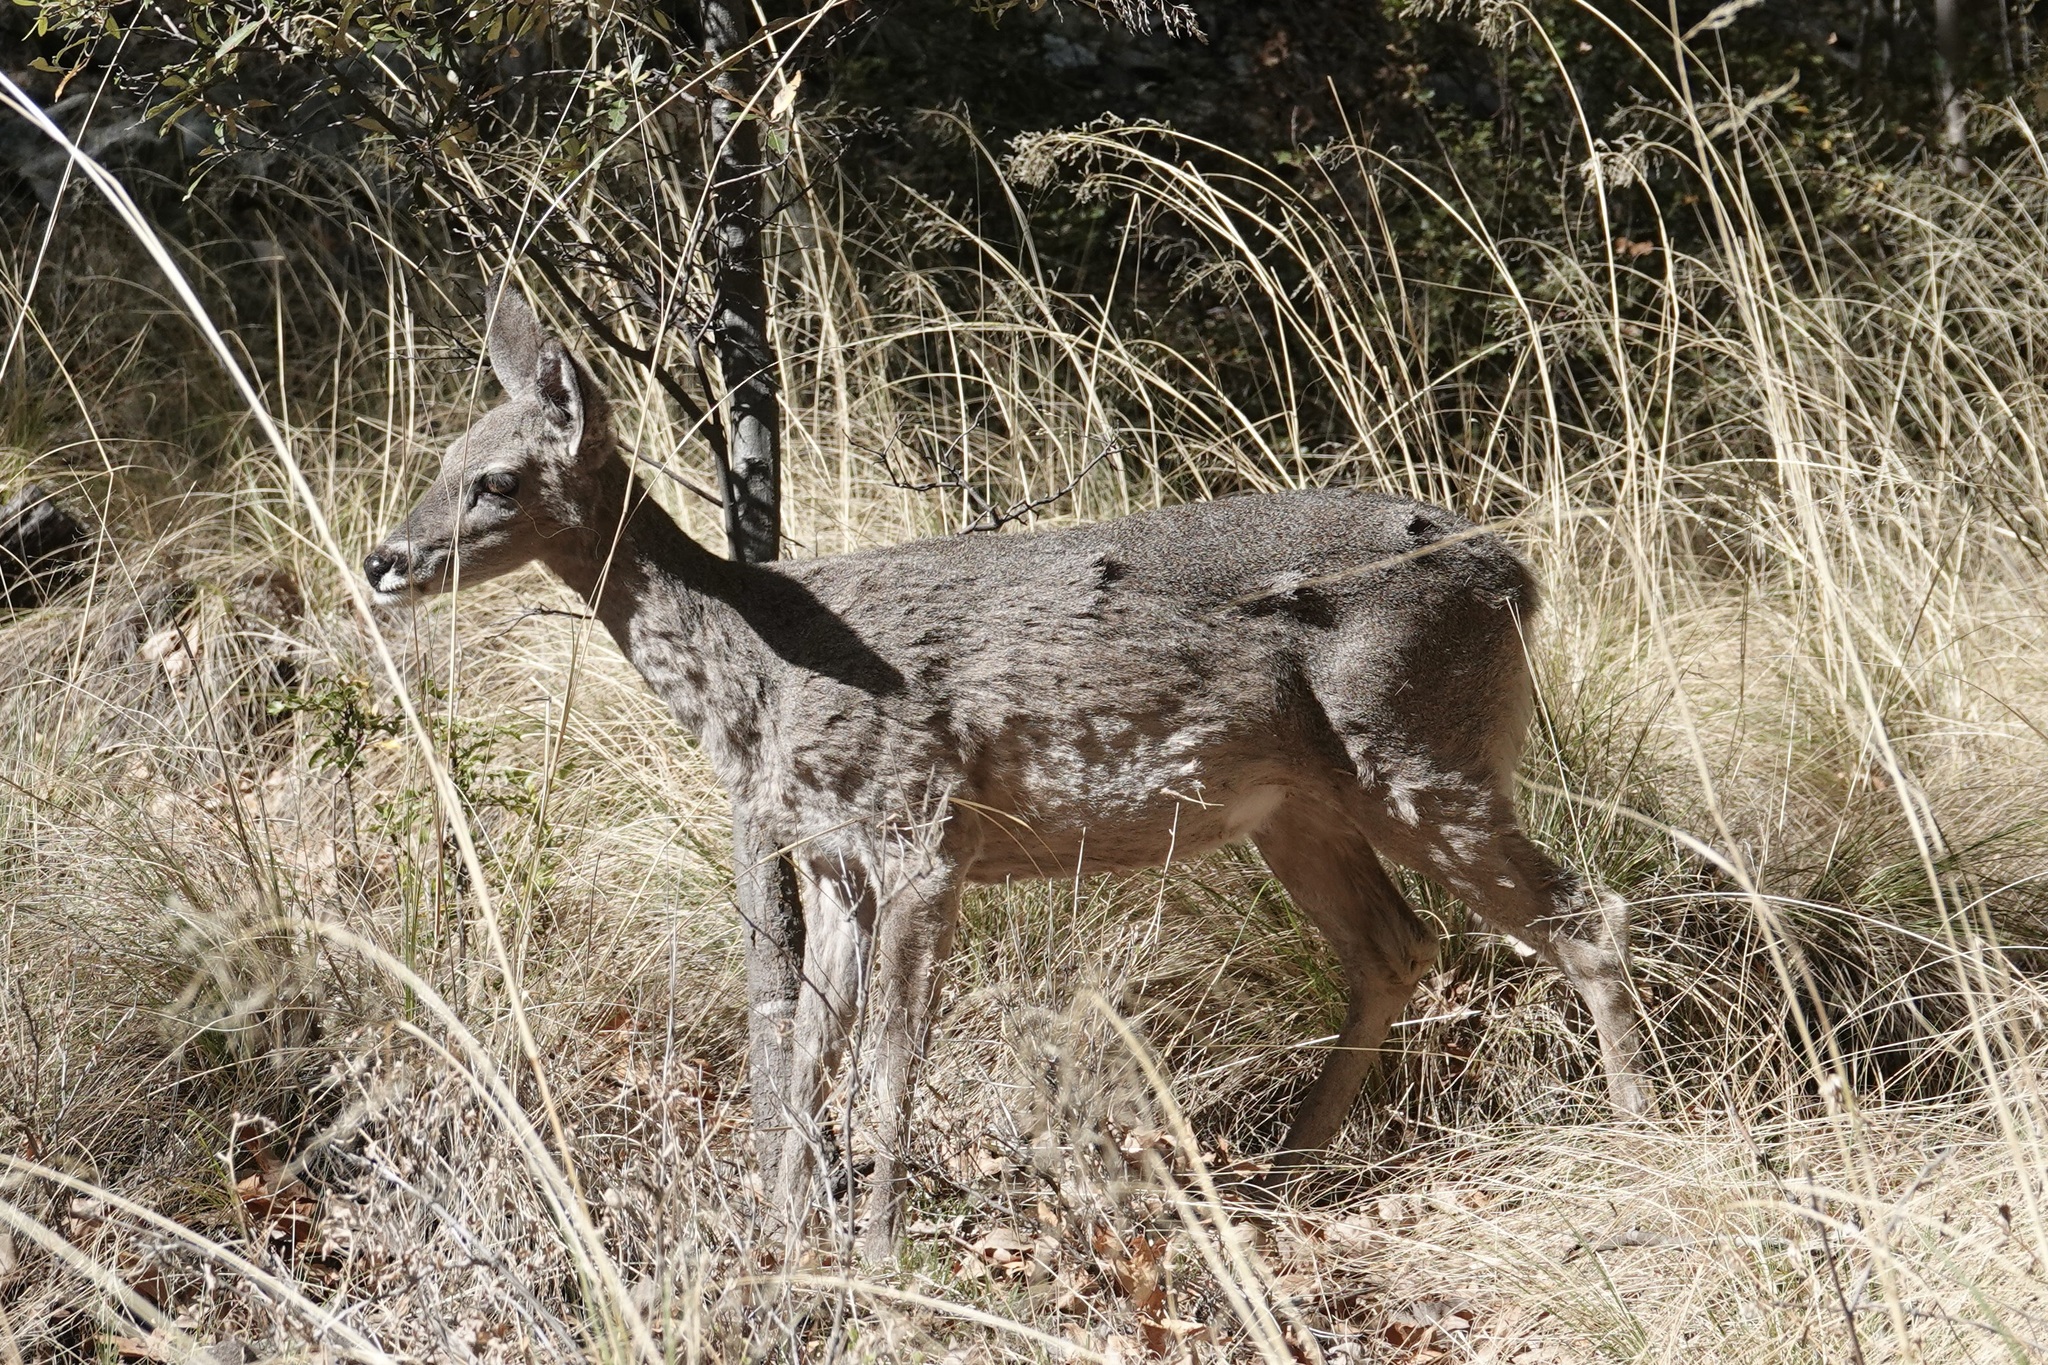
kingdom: Animalia
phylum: Chordata
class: Mammalia
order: Artiodactyla
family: Cervidae
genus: Odocoileus
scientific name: Odocoileus virginianus
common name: White-tailed deer
